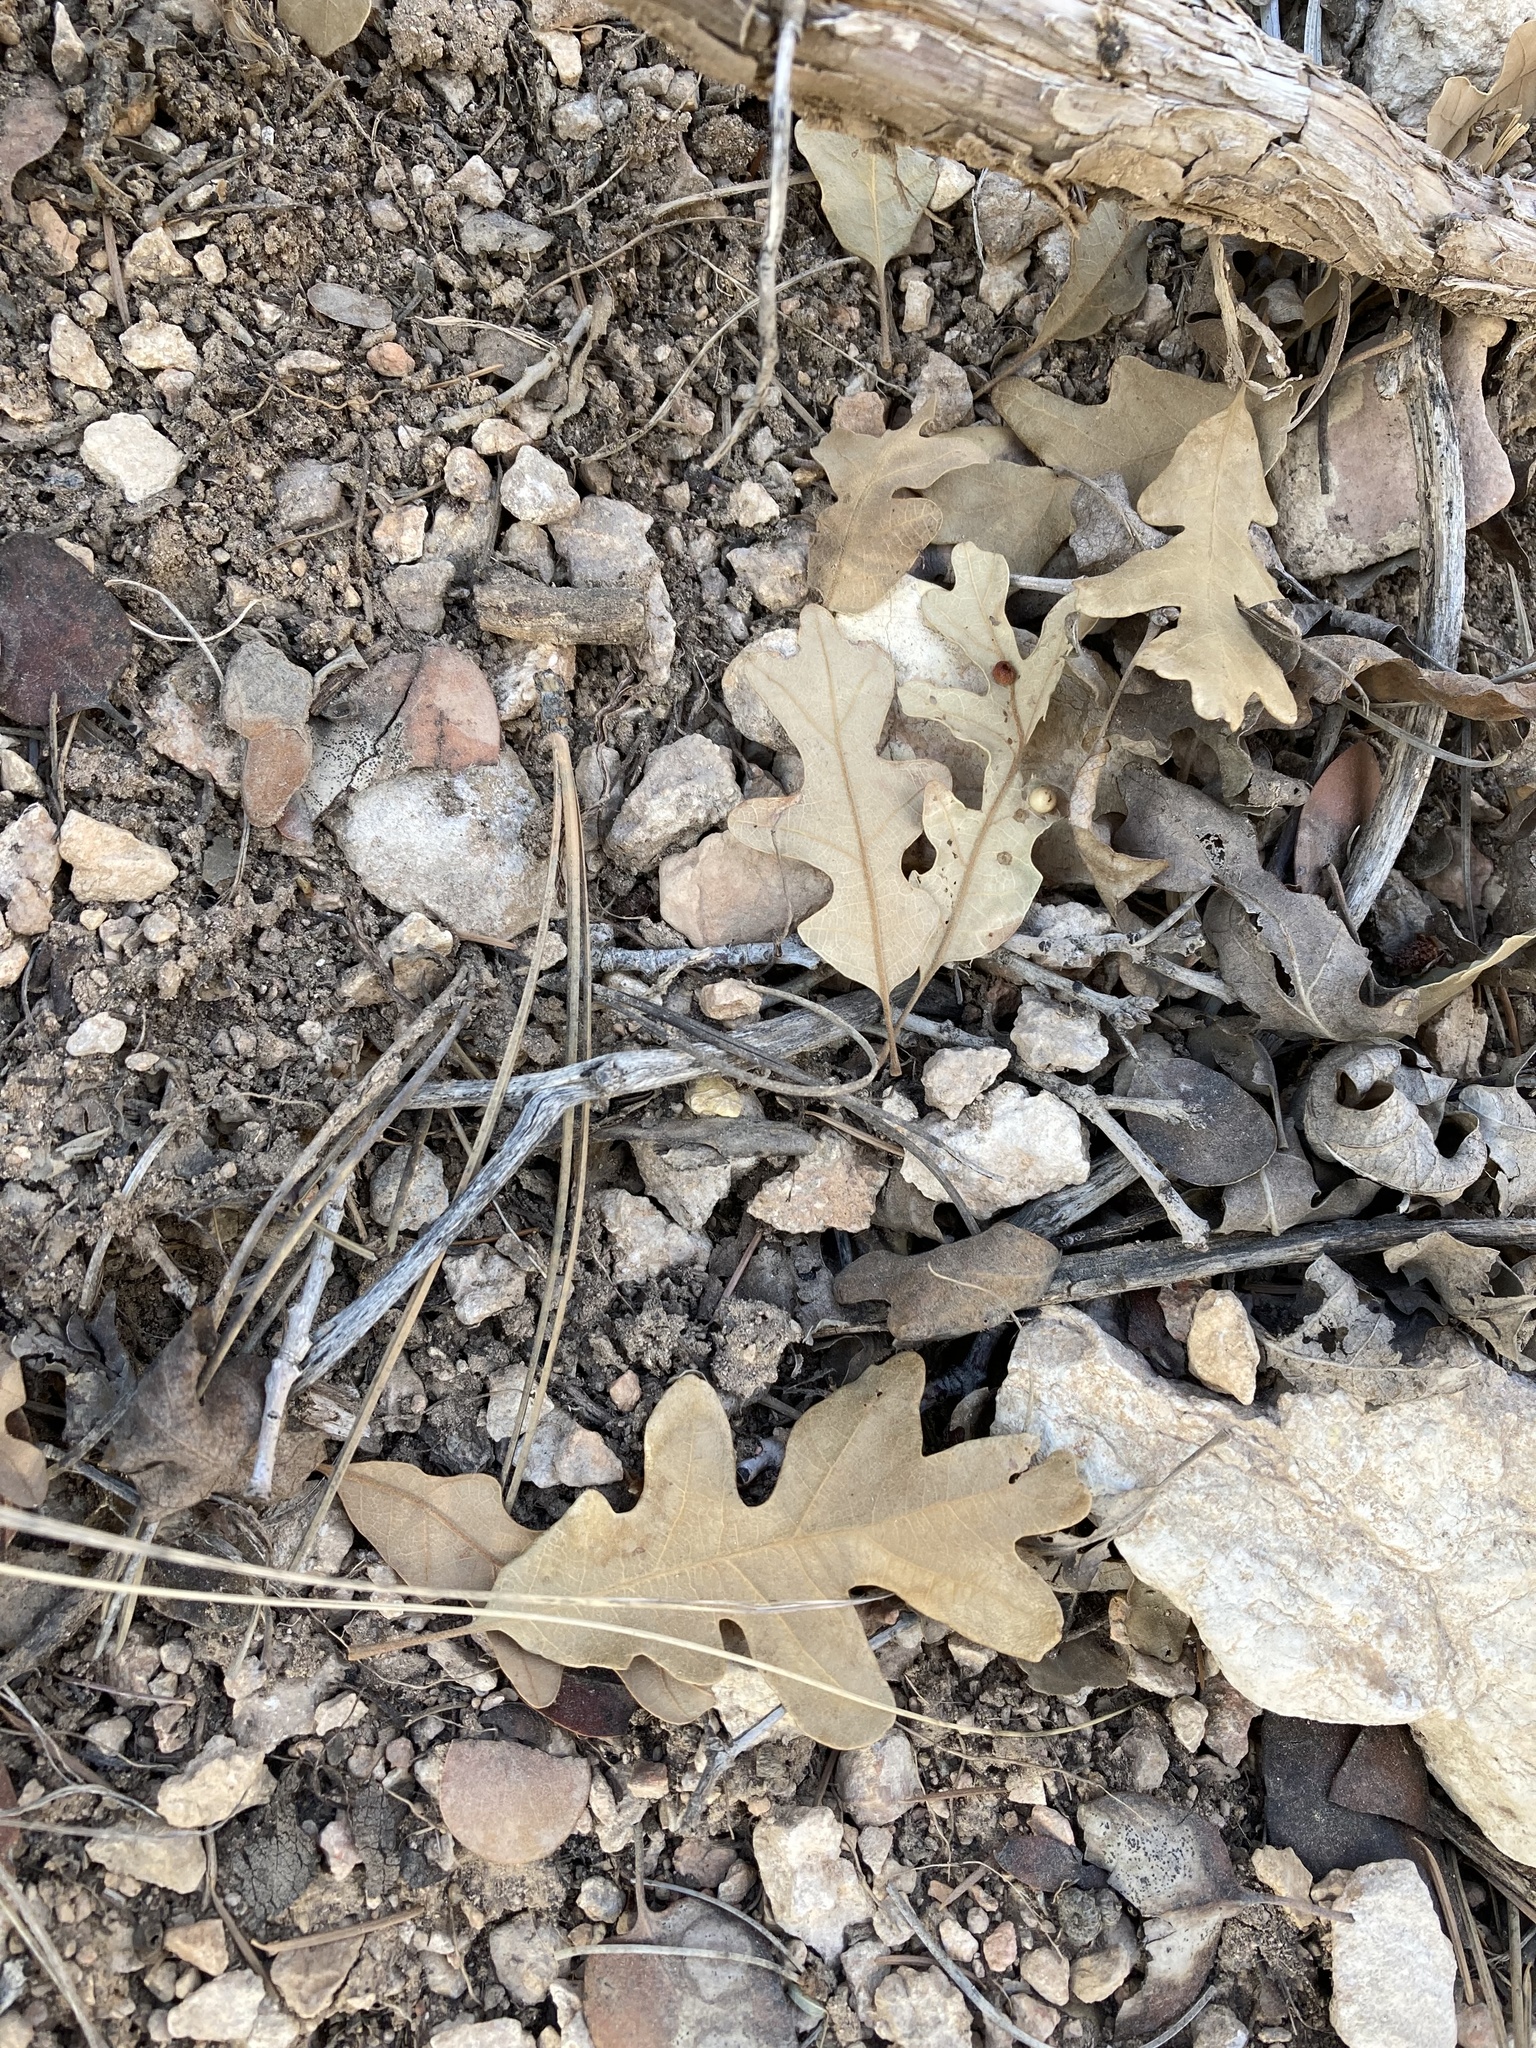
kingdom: Plantae
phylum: Tracheophyta
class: Magnoliopsida
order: Fagales
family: Fagaceae
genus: Quercus
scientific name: Quercus gambelii
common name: Gambel oak
